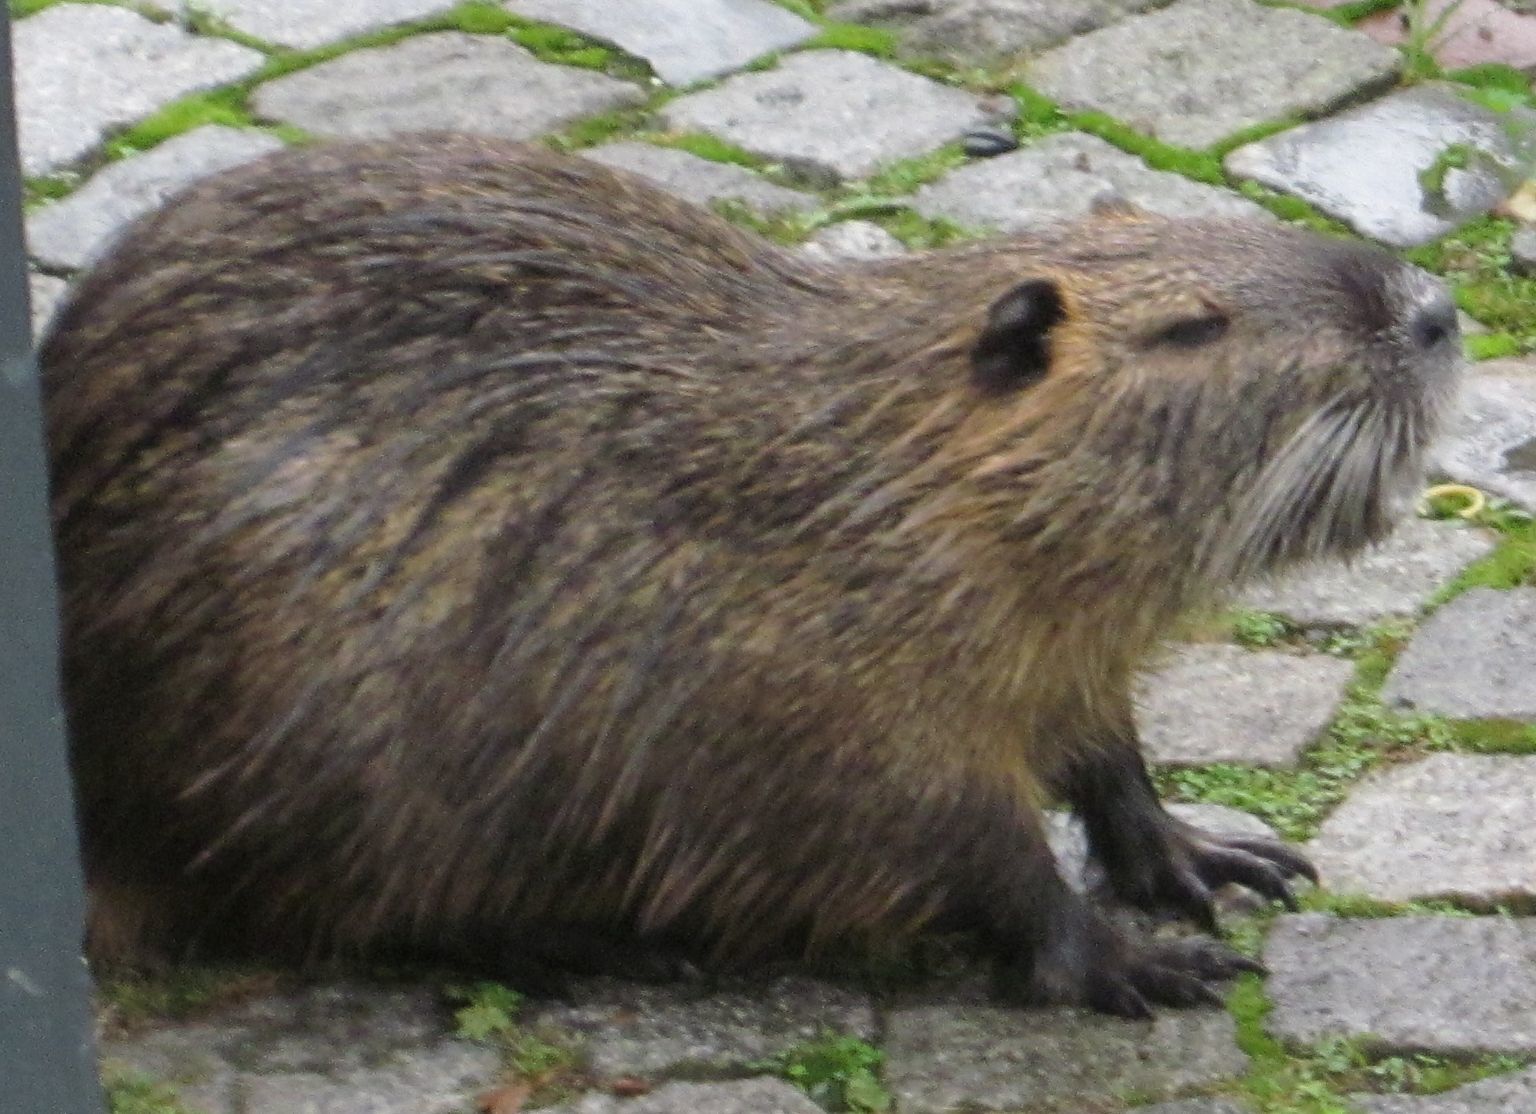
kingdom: Animalia
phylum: Chordata
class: Mammalia
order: Rodentia
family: Myocastoridae
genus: Myocastor
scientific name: Myocastor coypus
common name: Coypu
